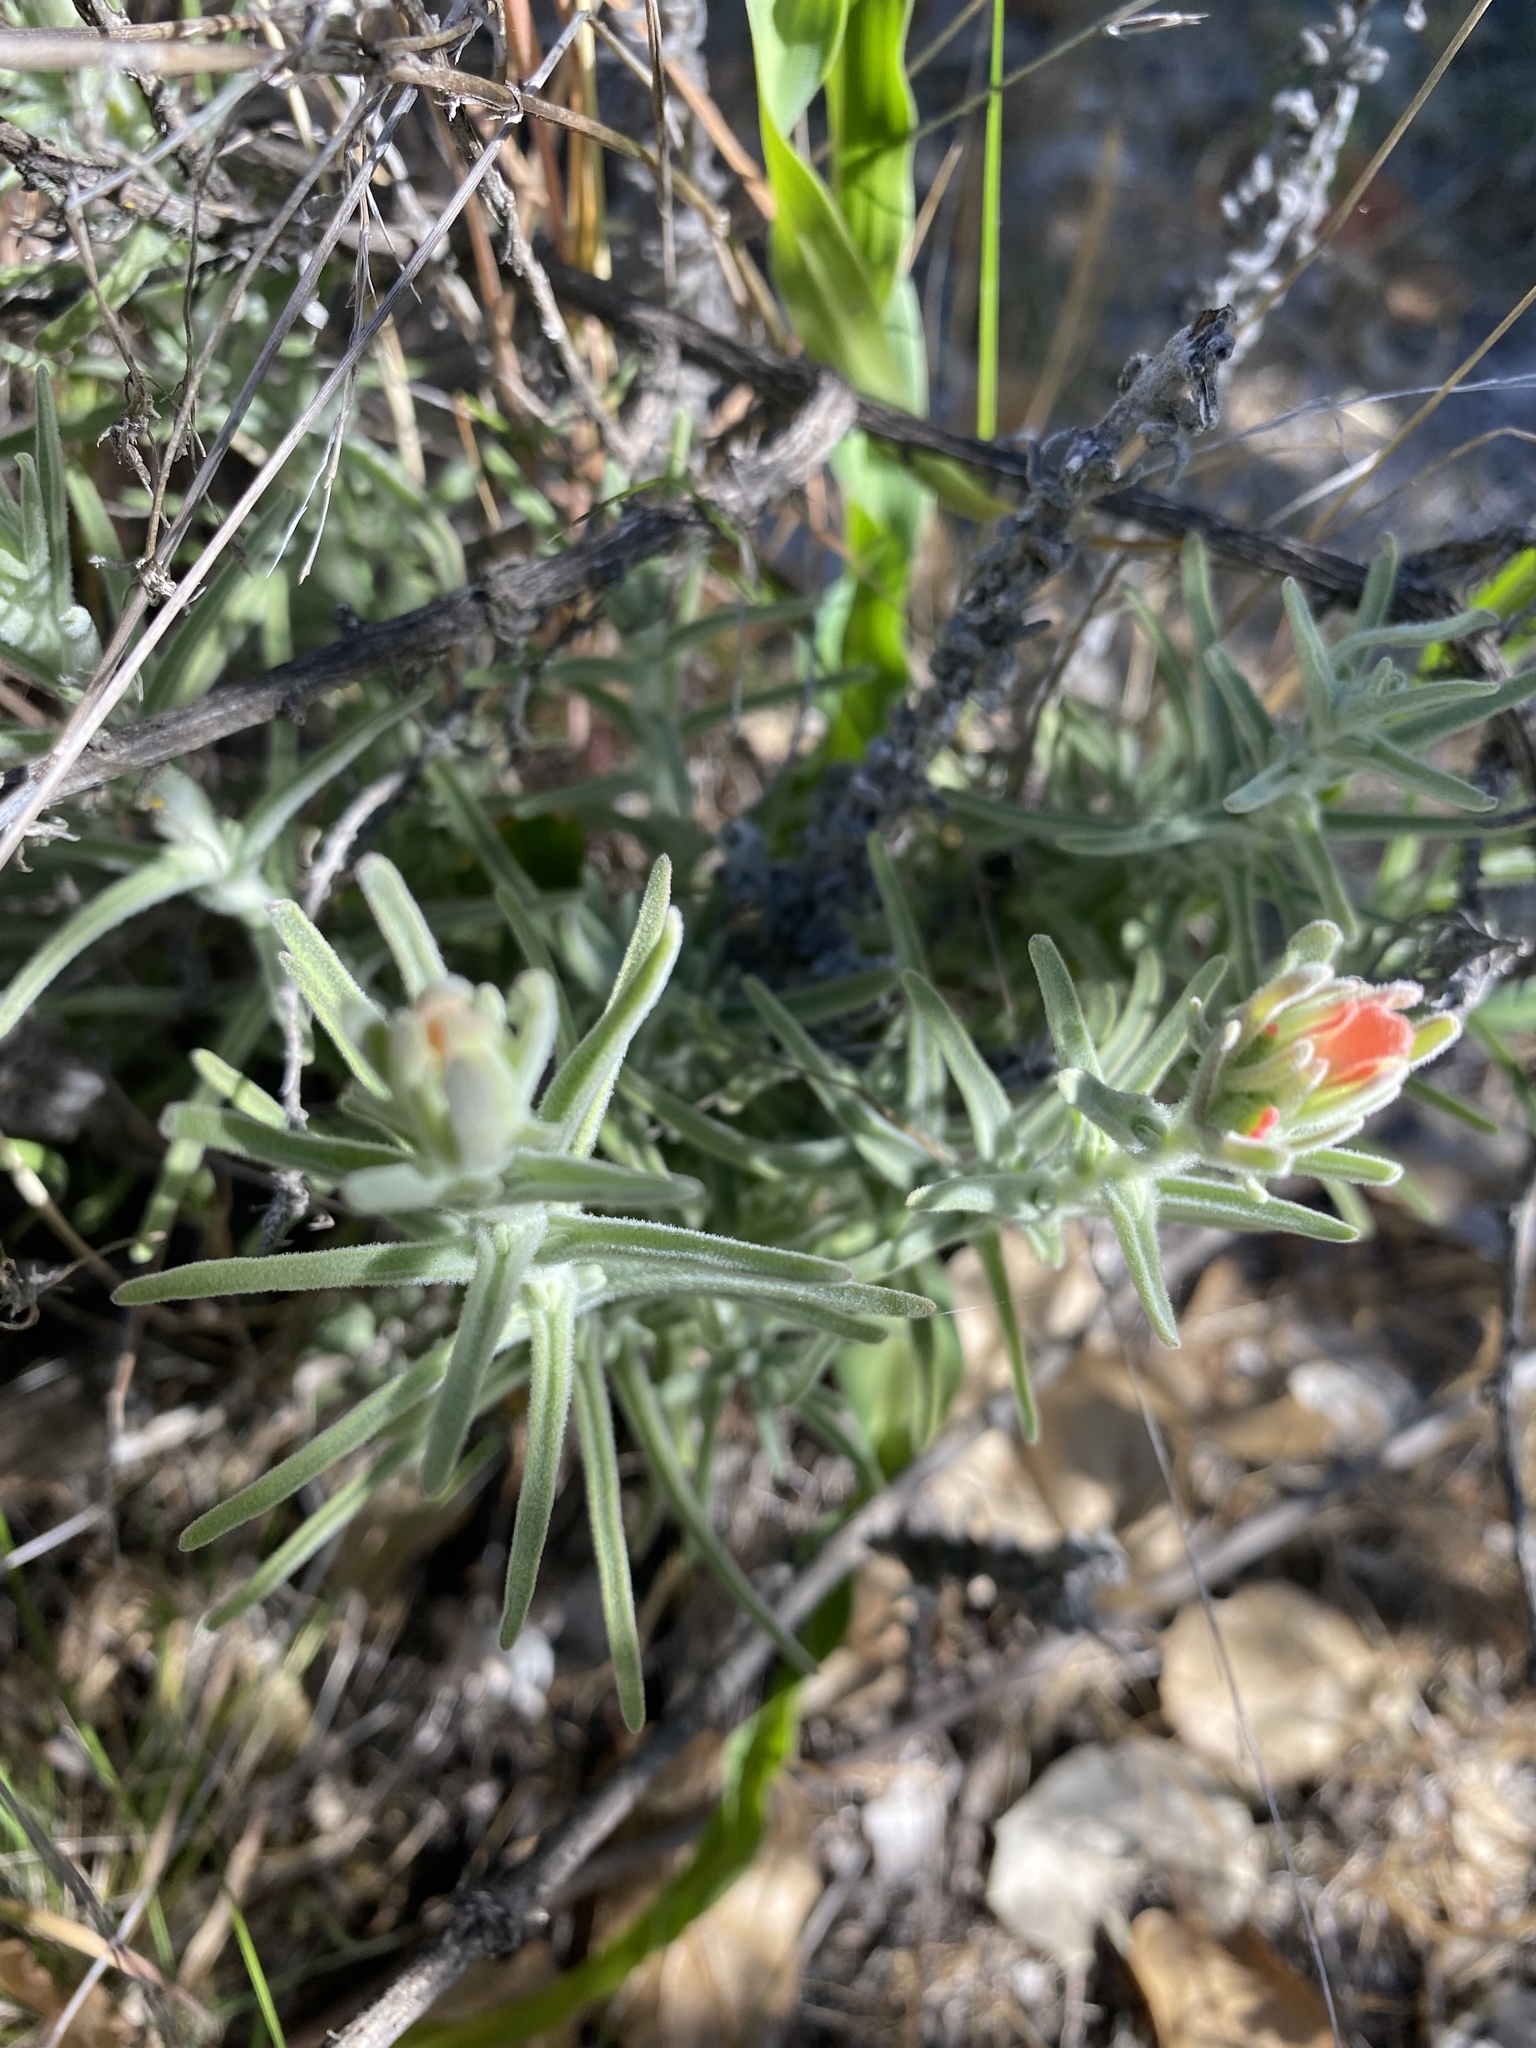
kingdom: Plantae
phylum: Tracheophyta
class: Magnoliopsida
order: Lamiales
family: Orobanchaceae
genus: Castilleja
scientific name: Castilleja foliolosa
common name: Woolly indian paintbrush
